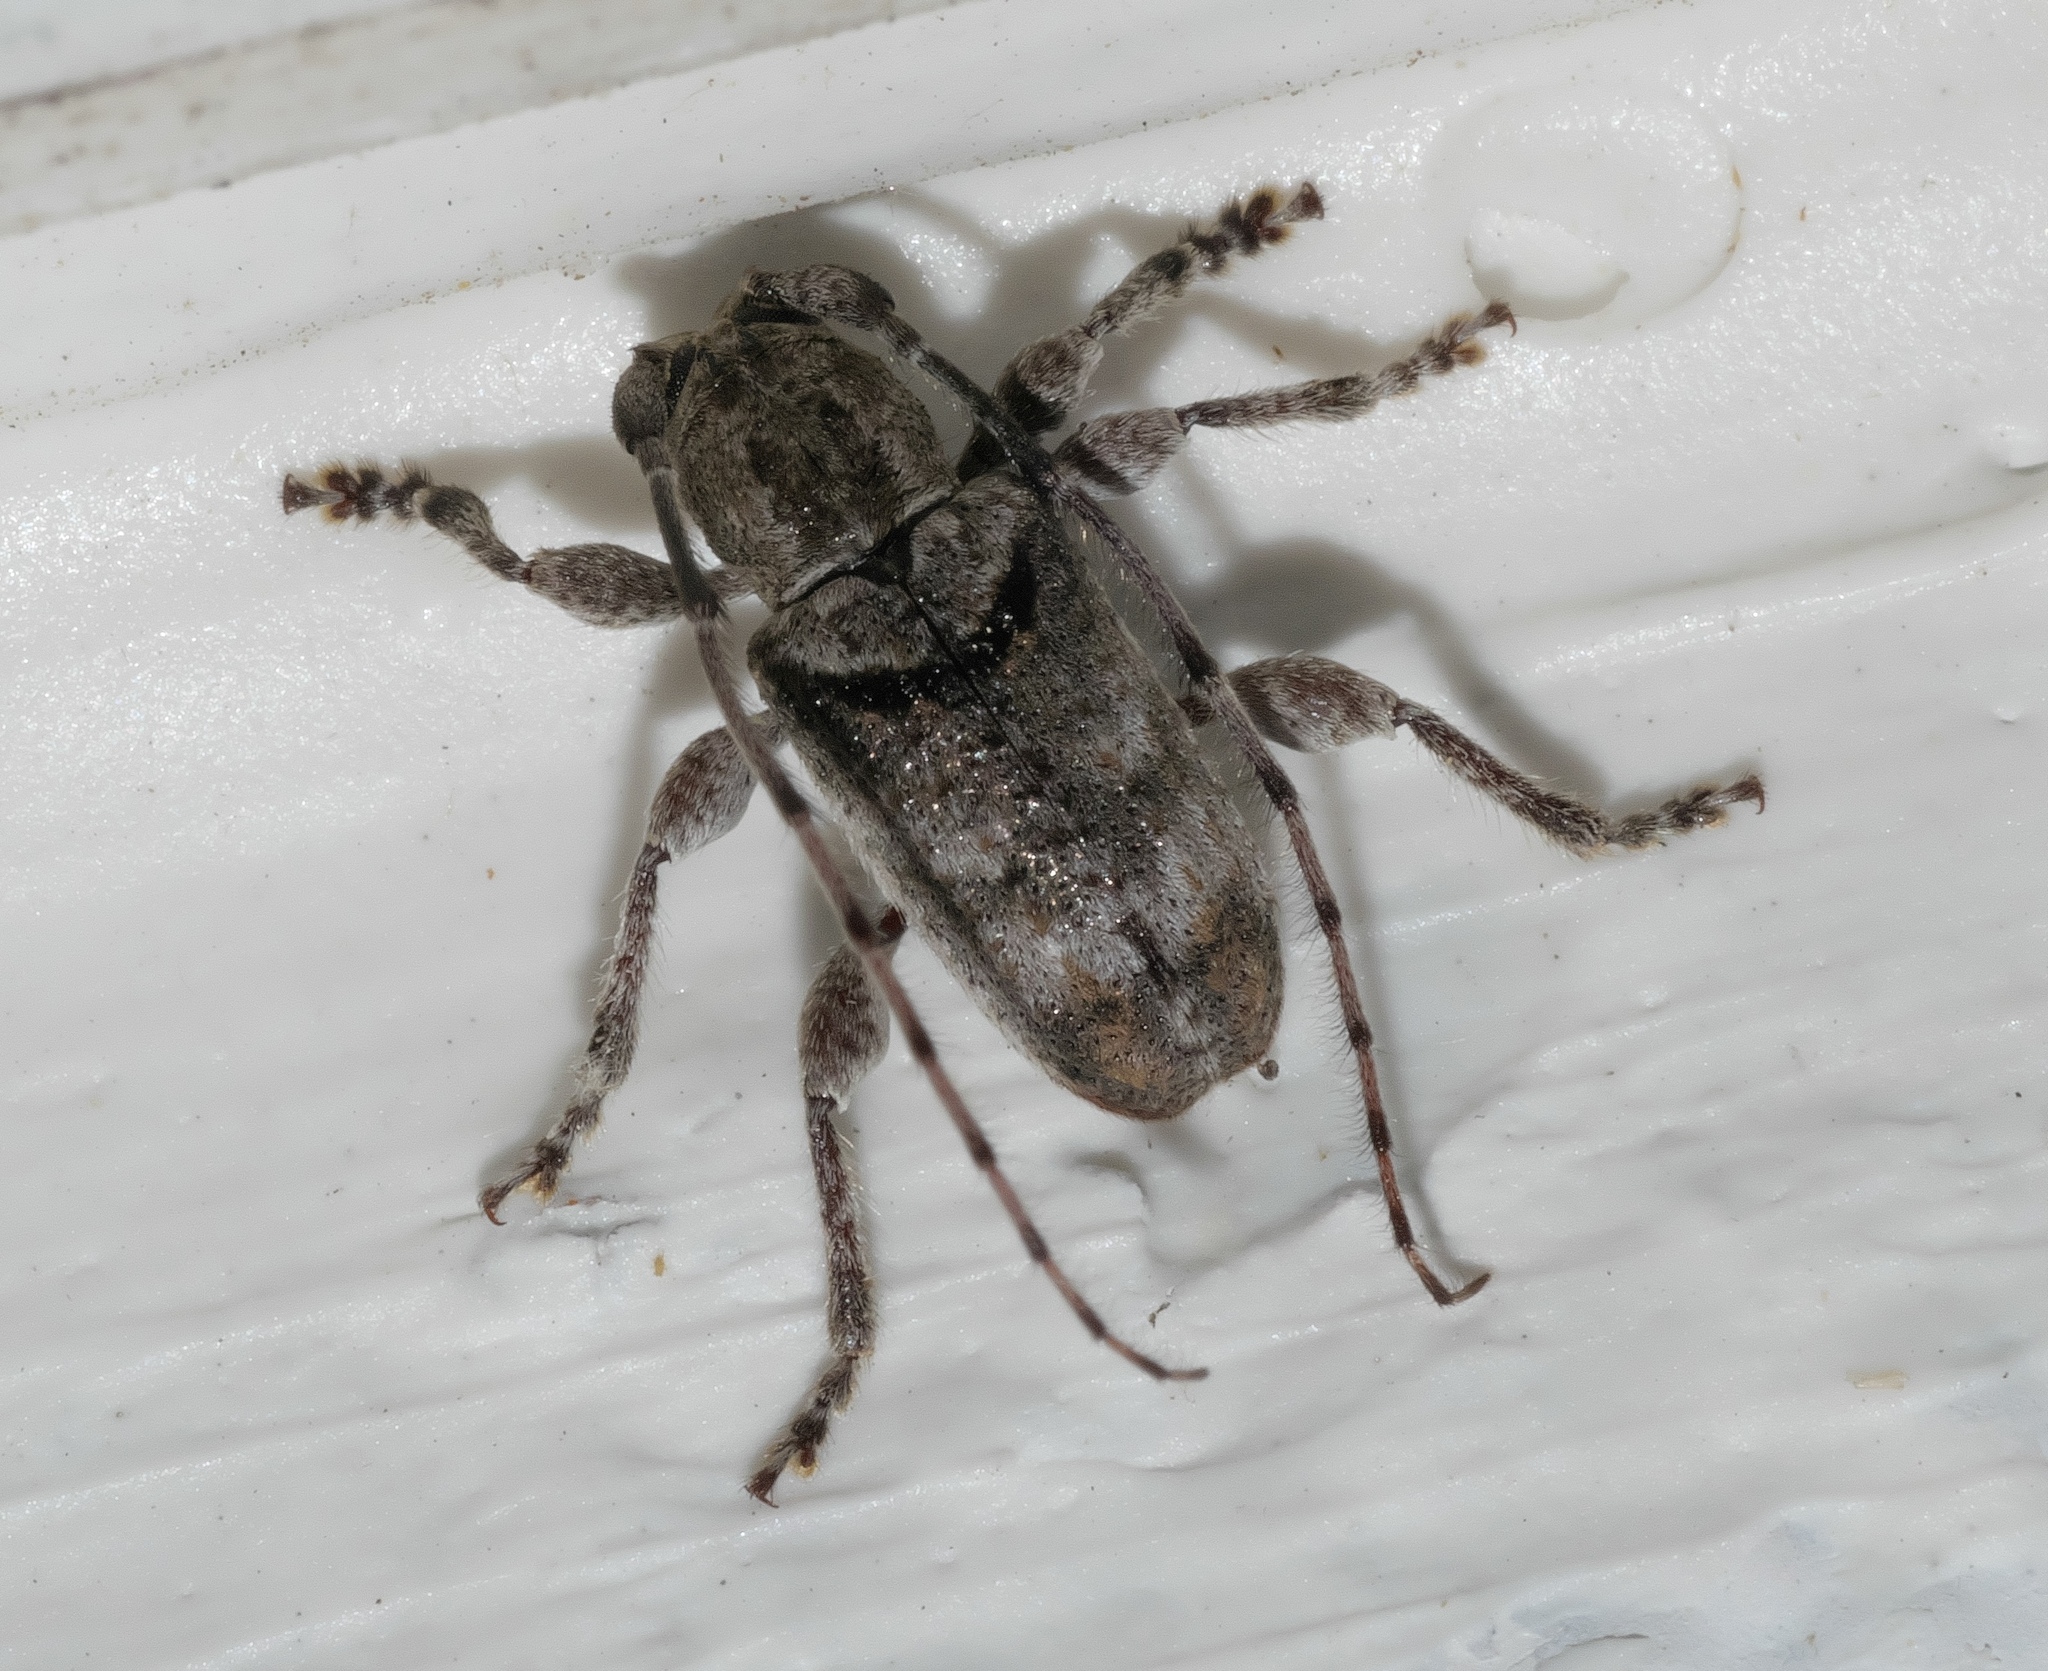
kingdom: Animalia
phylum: Arthropoda
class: Insecta
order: Coleoptera
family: Cerambycidae
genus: Ecyrus
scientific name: Ecyrus dasycerus
